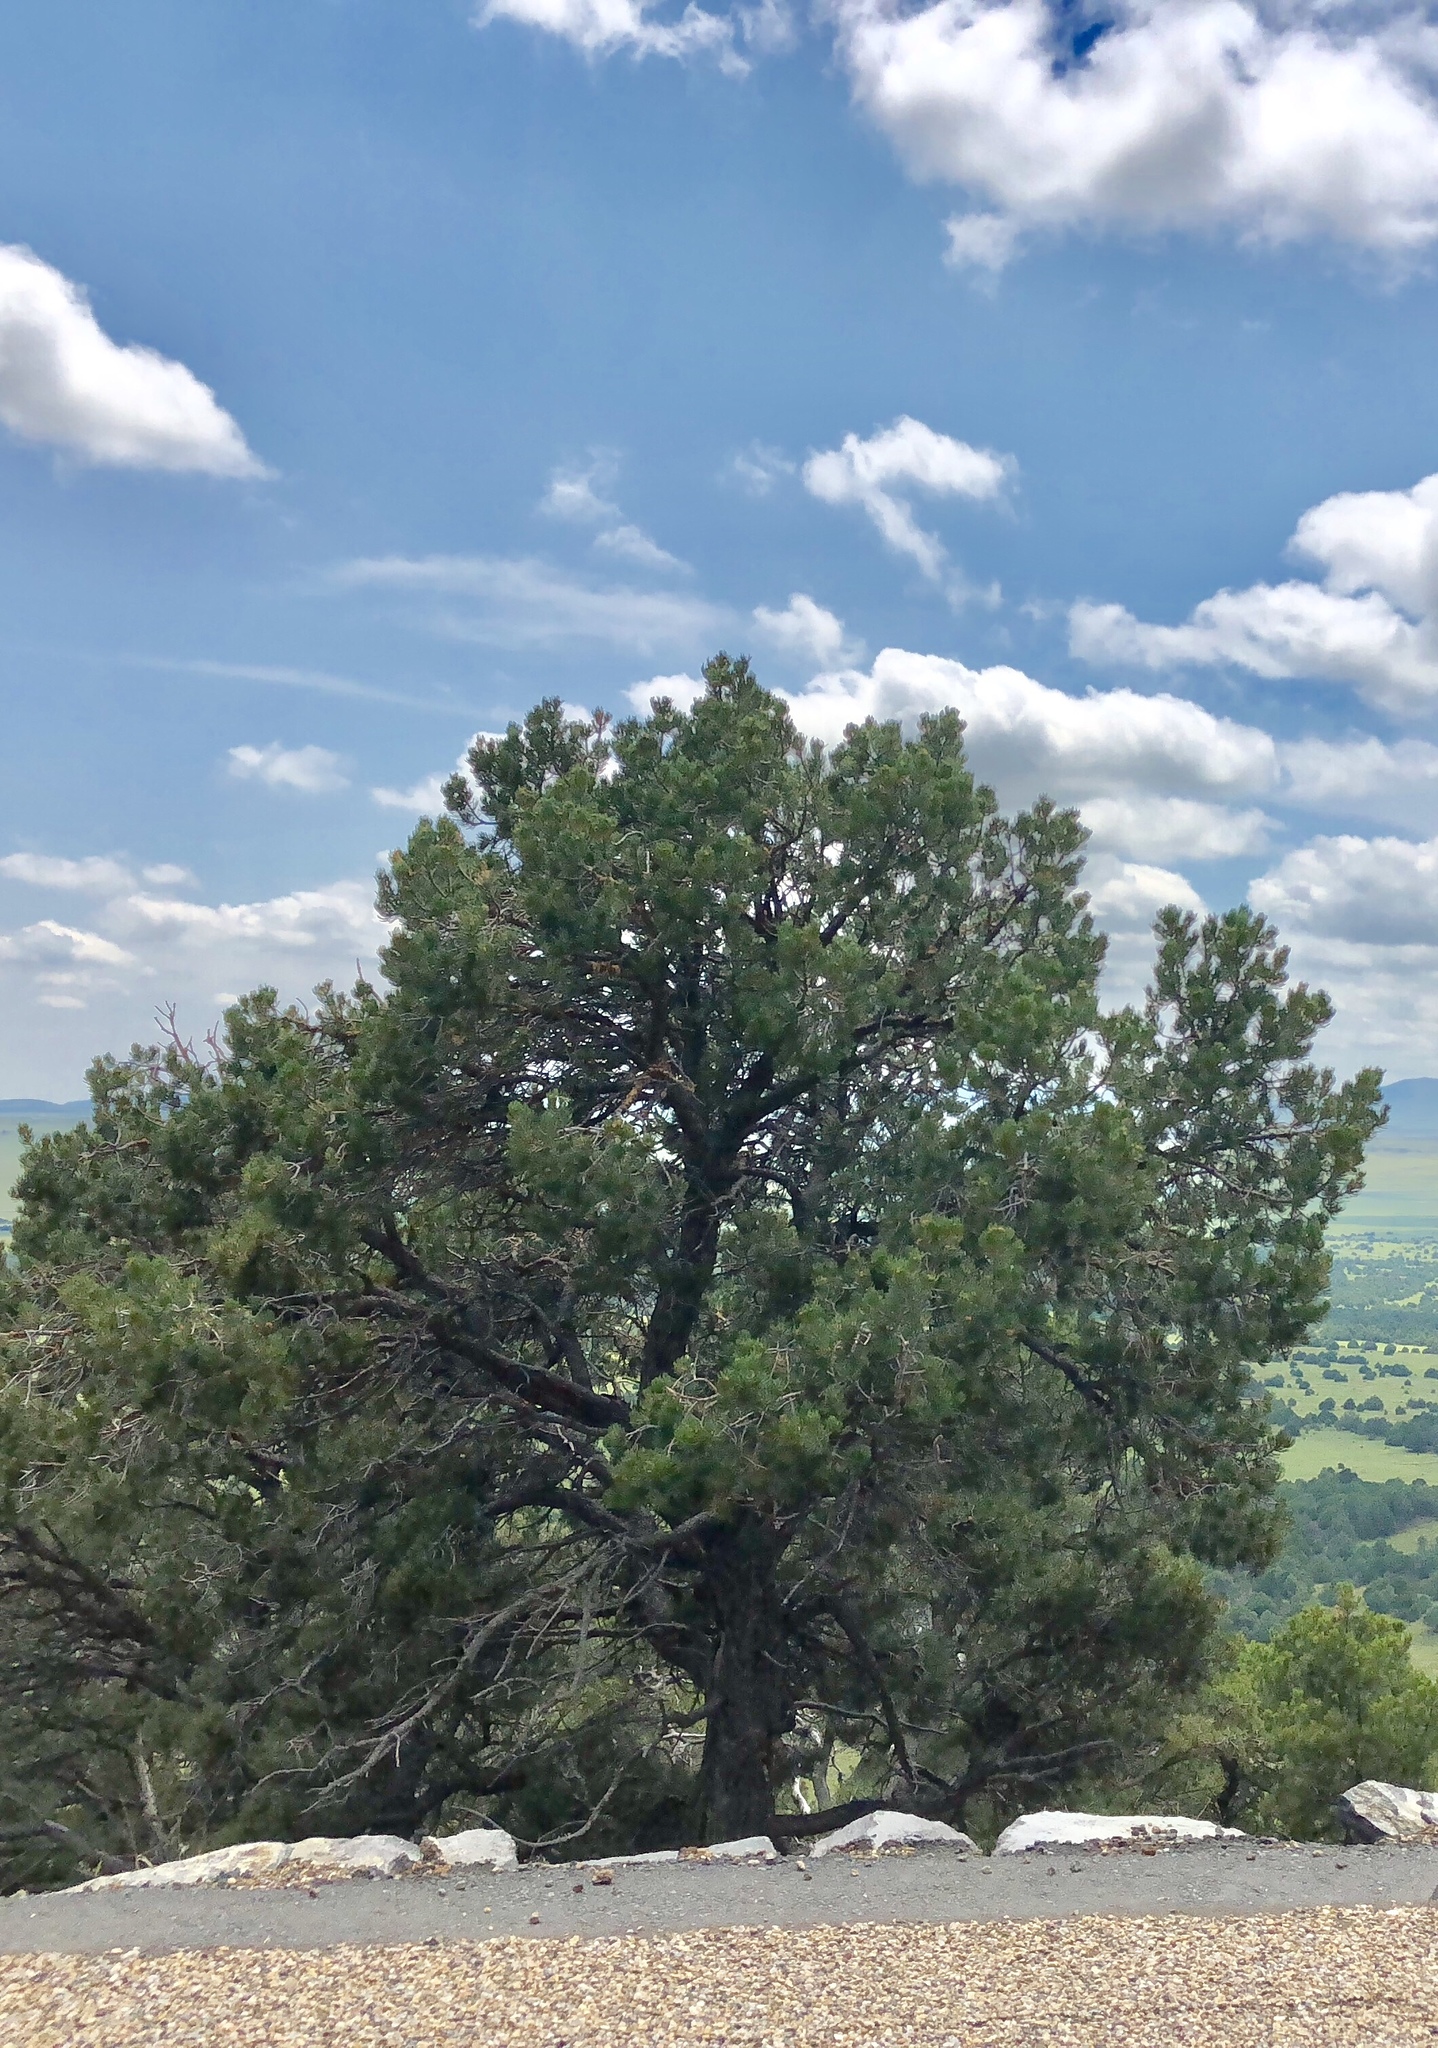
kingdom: Plantae
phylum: Tracheophyta
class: Pinopsida
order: Pinales
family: Pinaceae
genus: Pinus
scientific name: Pinus edulis
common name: Colorado pinyon
